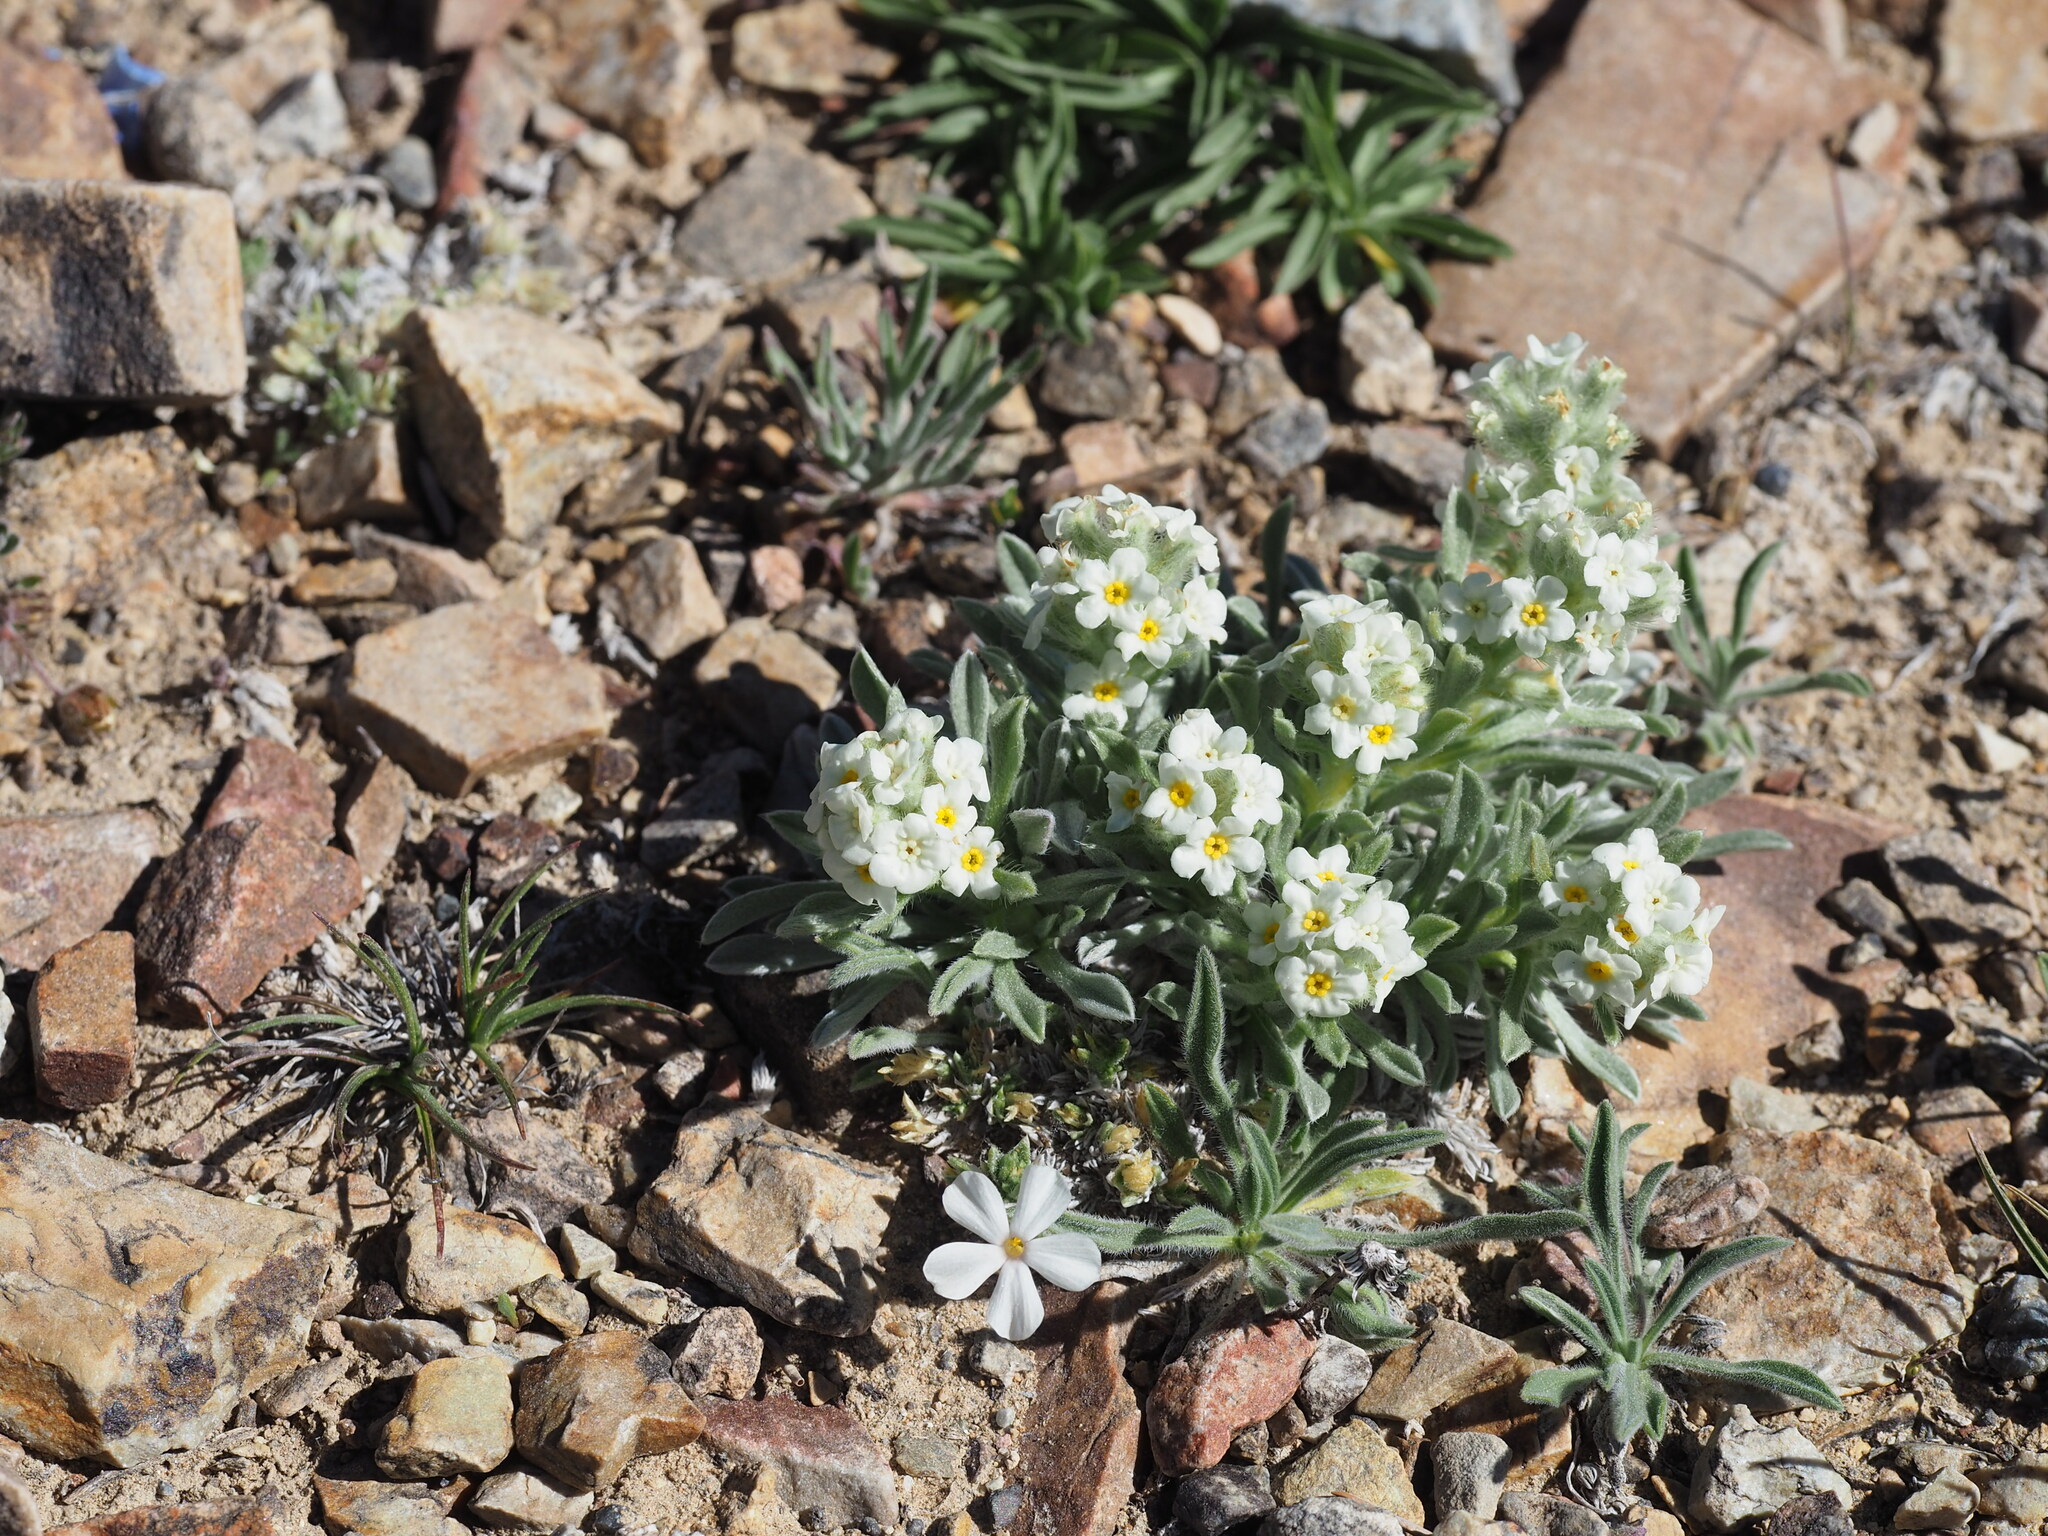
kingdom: Plantae
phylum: Tracheophyta
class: Magnoliopsida
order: Boraginales
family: Boraginaceae
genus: Oreocarya
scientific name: Oreocarya humilis
